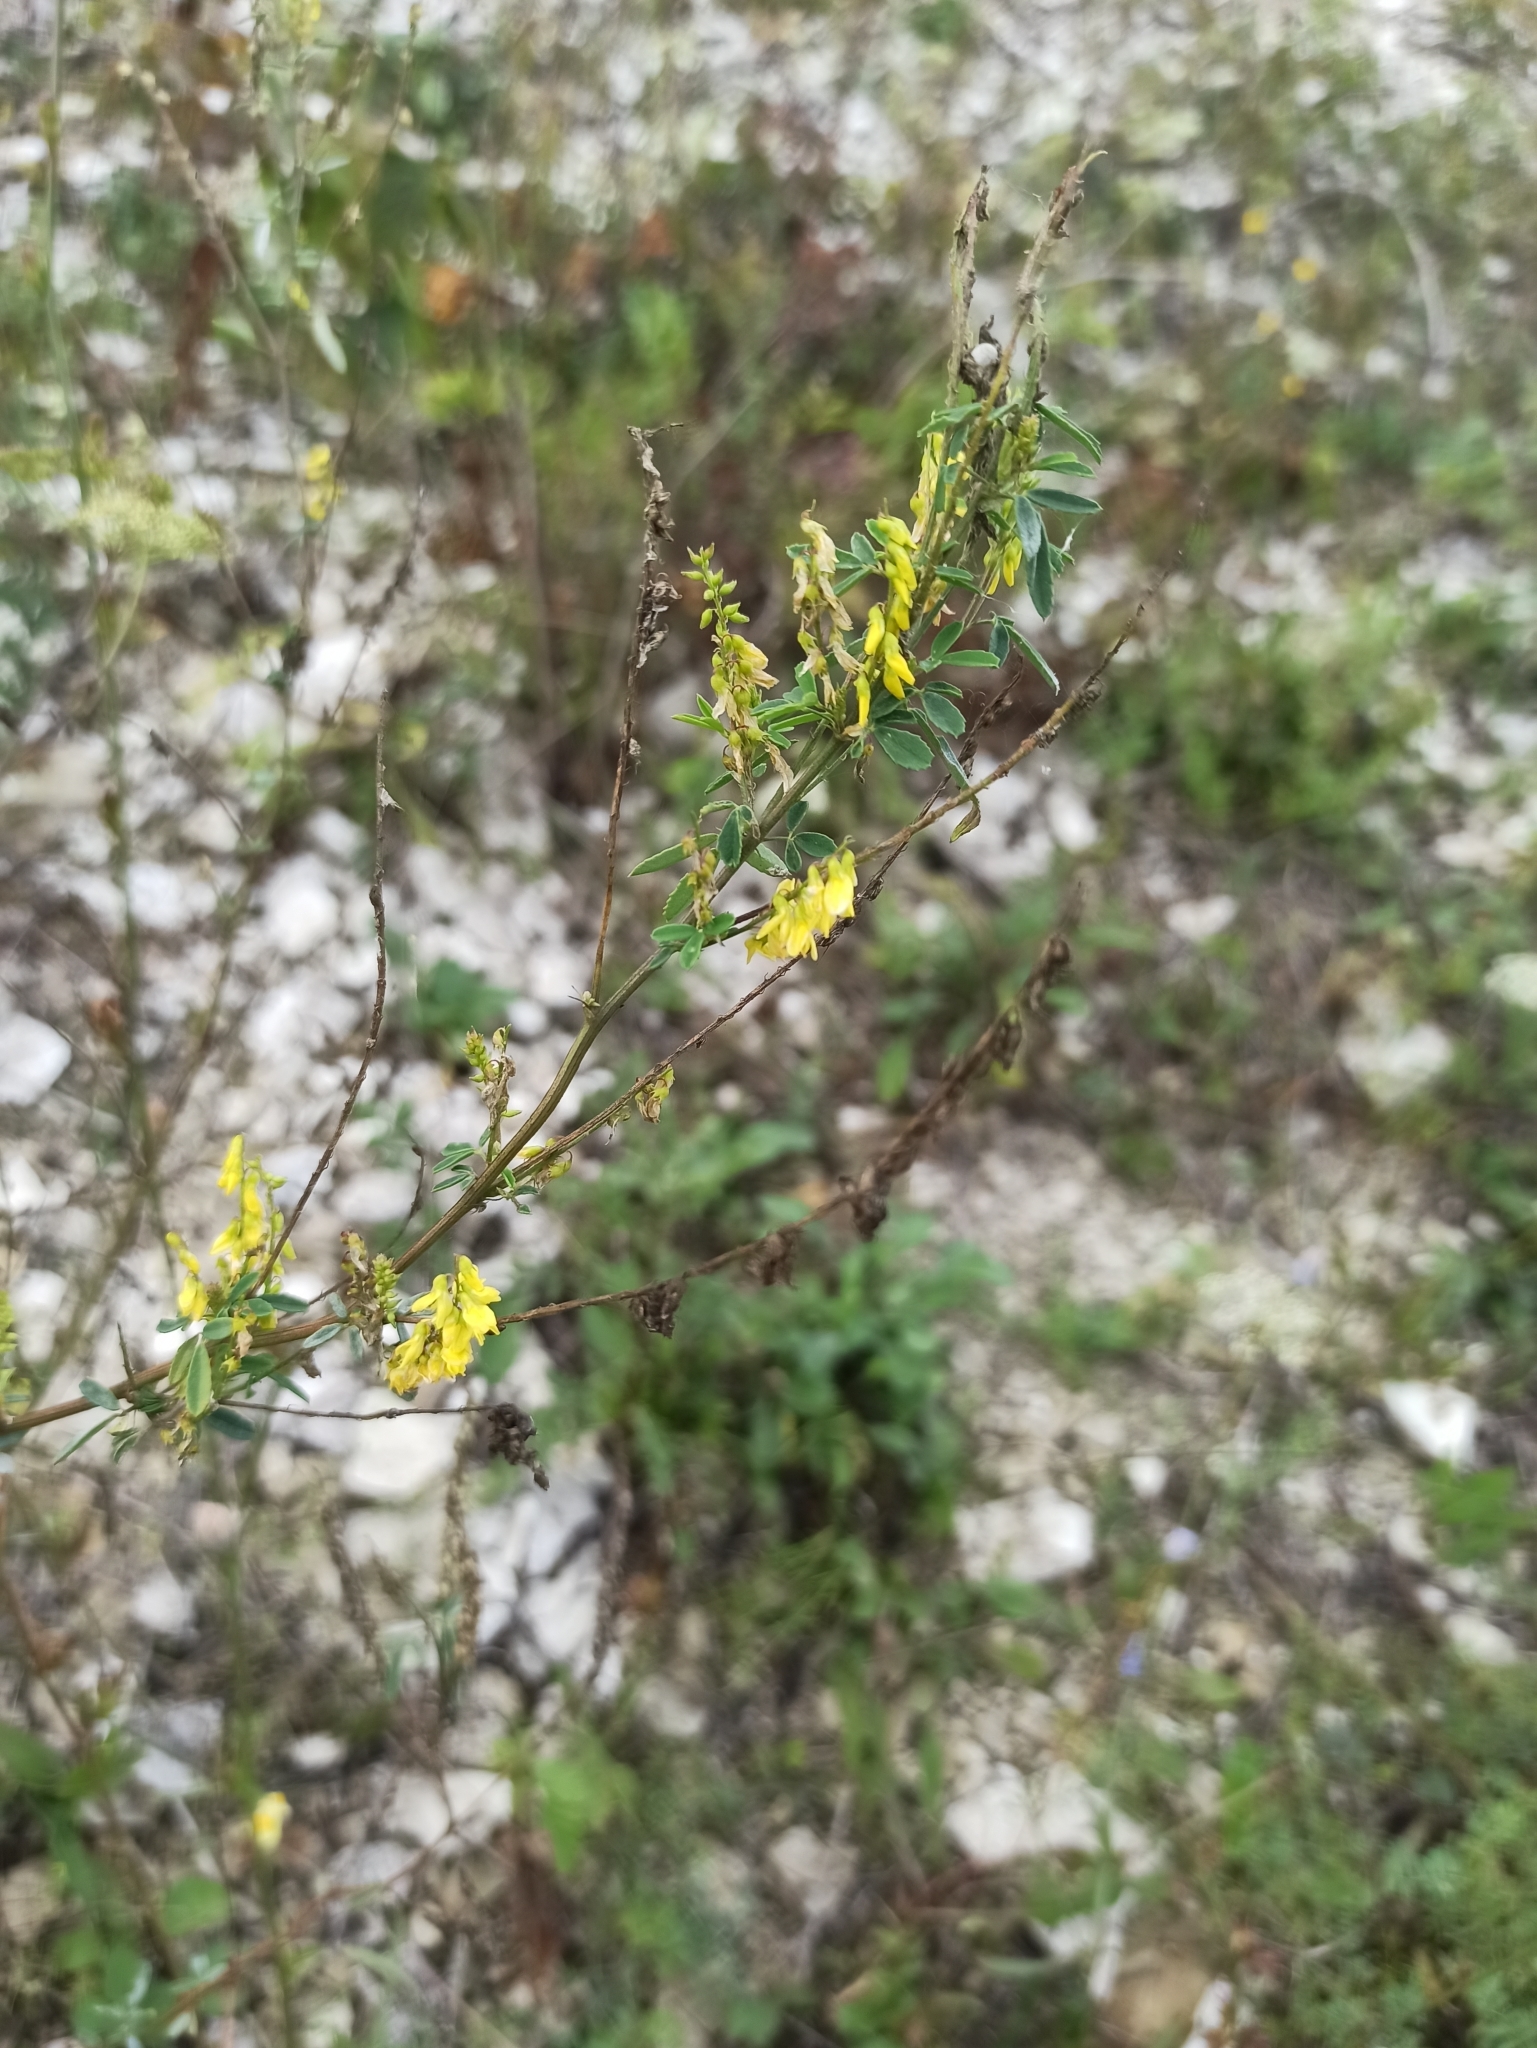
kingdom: Plantae
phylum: Tracheophyta
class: Magnoliopsida
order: Fabales
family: Fabaceae
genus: Melilotus
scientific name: Melilotus officinalis
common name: Sweetclover
